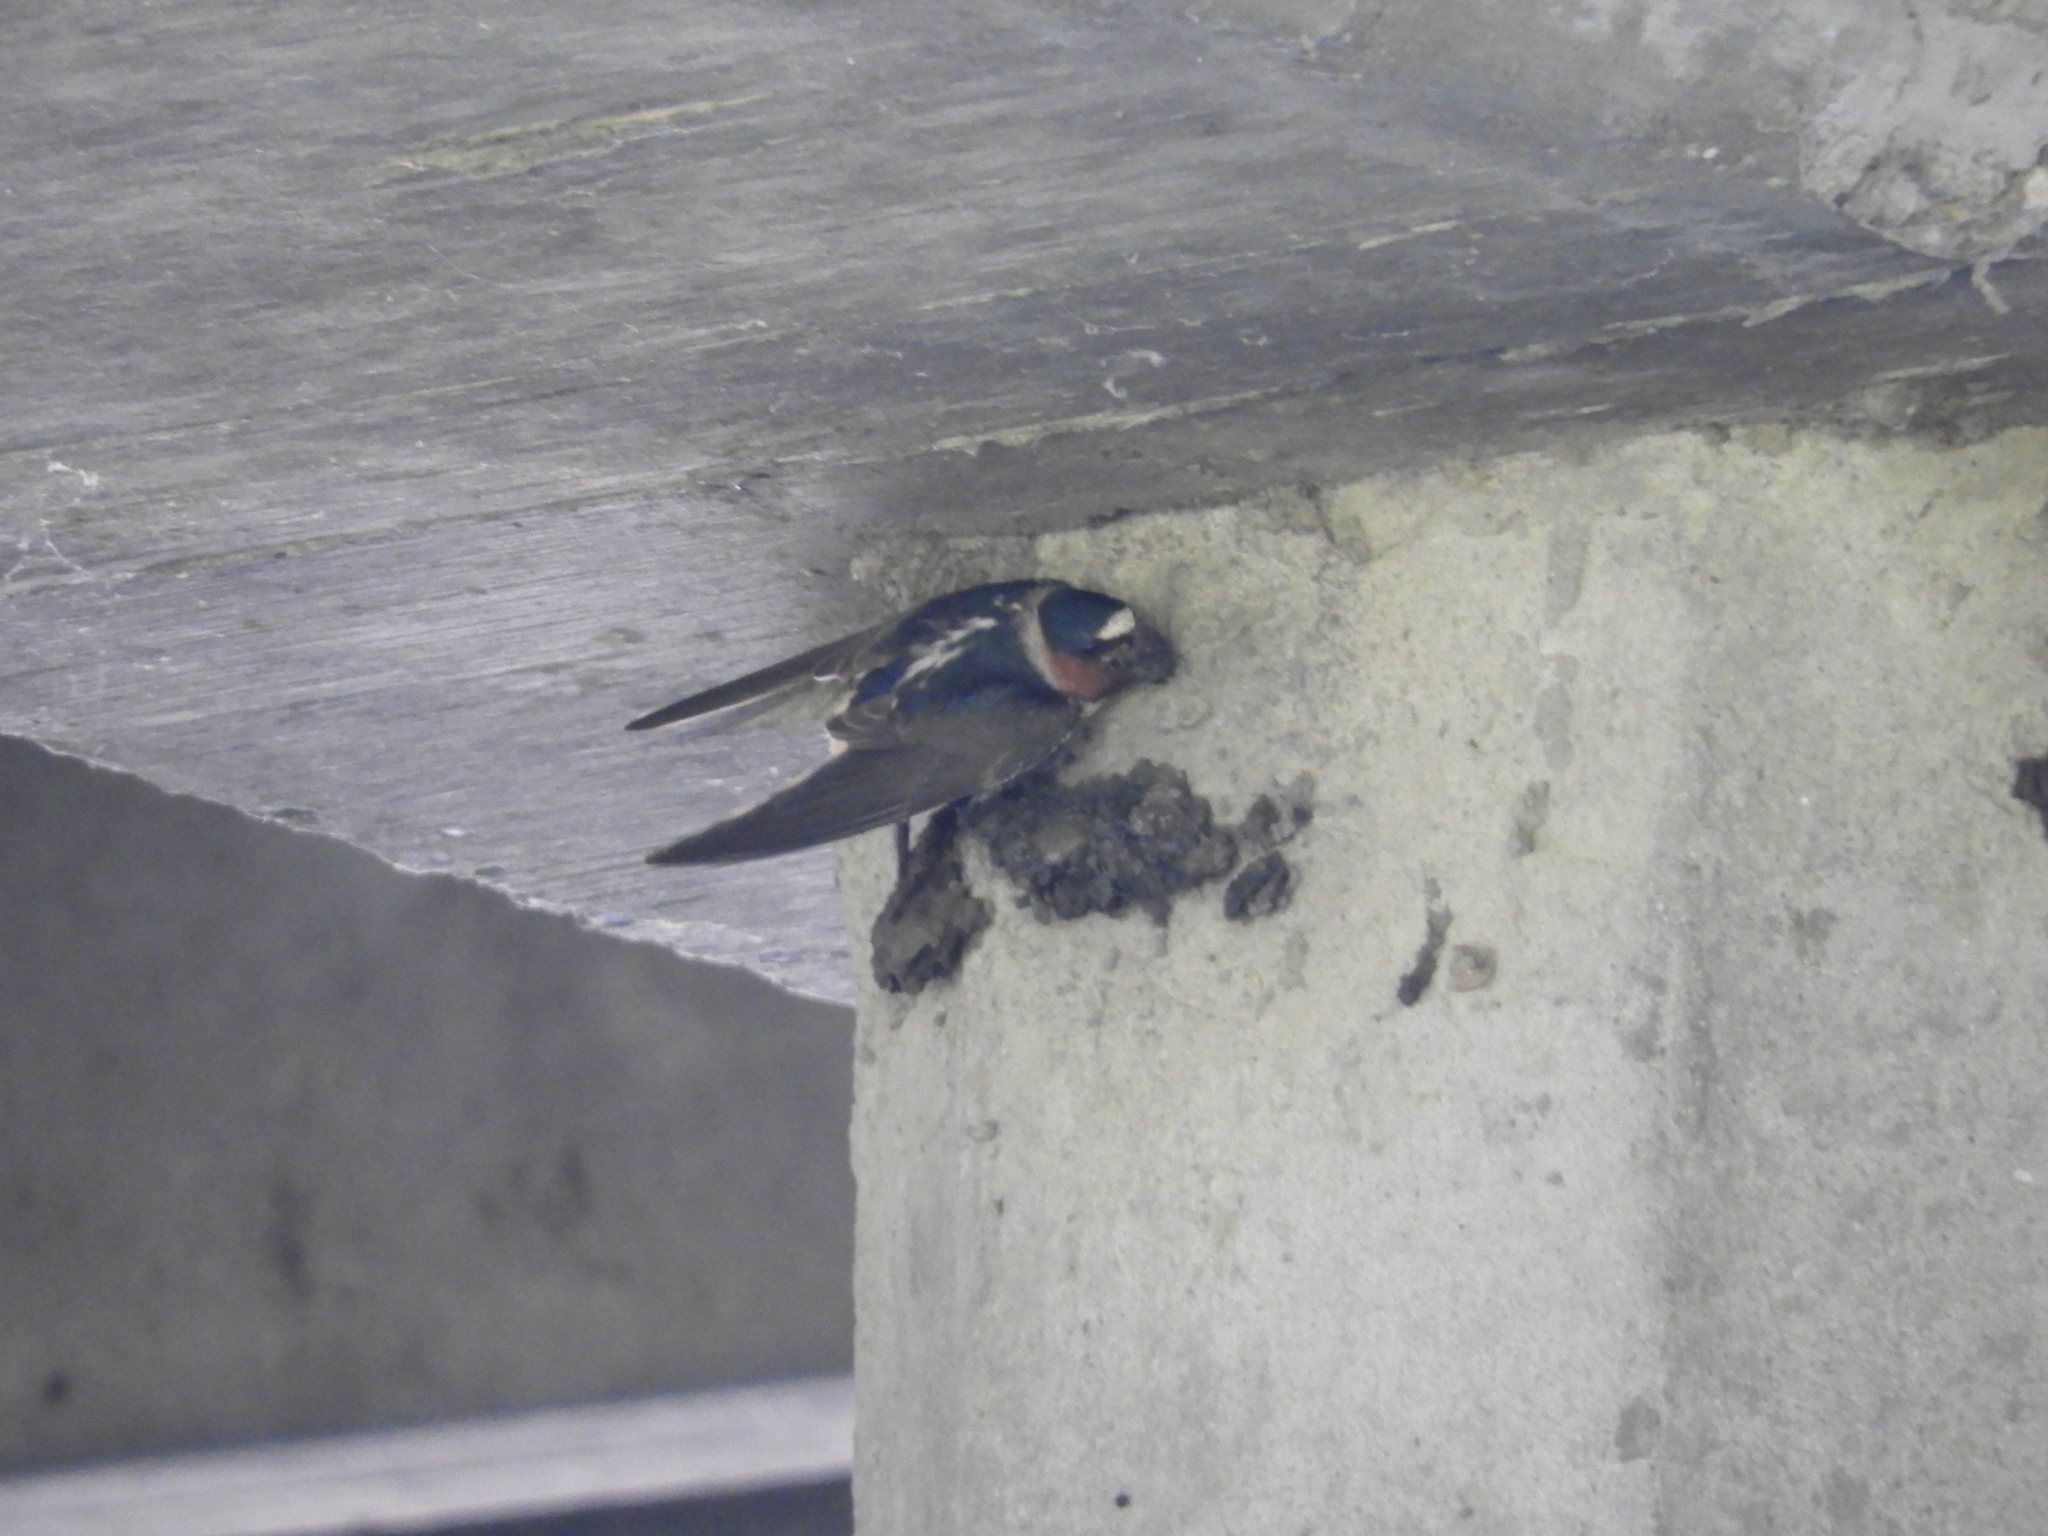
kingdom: Animalia
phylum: Chordata
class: Aves
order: Passeriformes
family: Hirundinidae
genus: Petrochelidon
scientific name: Petrochelidon pyrrhonota
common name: American cliff swallow
